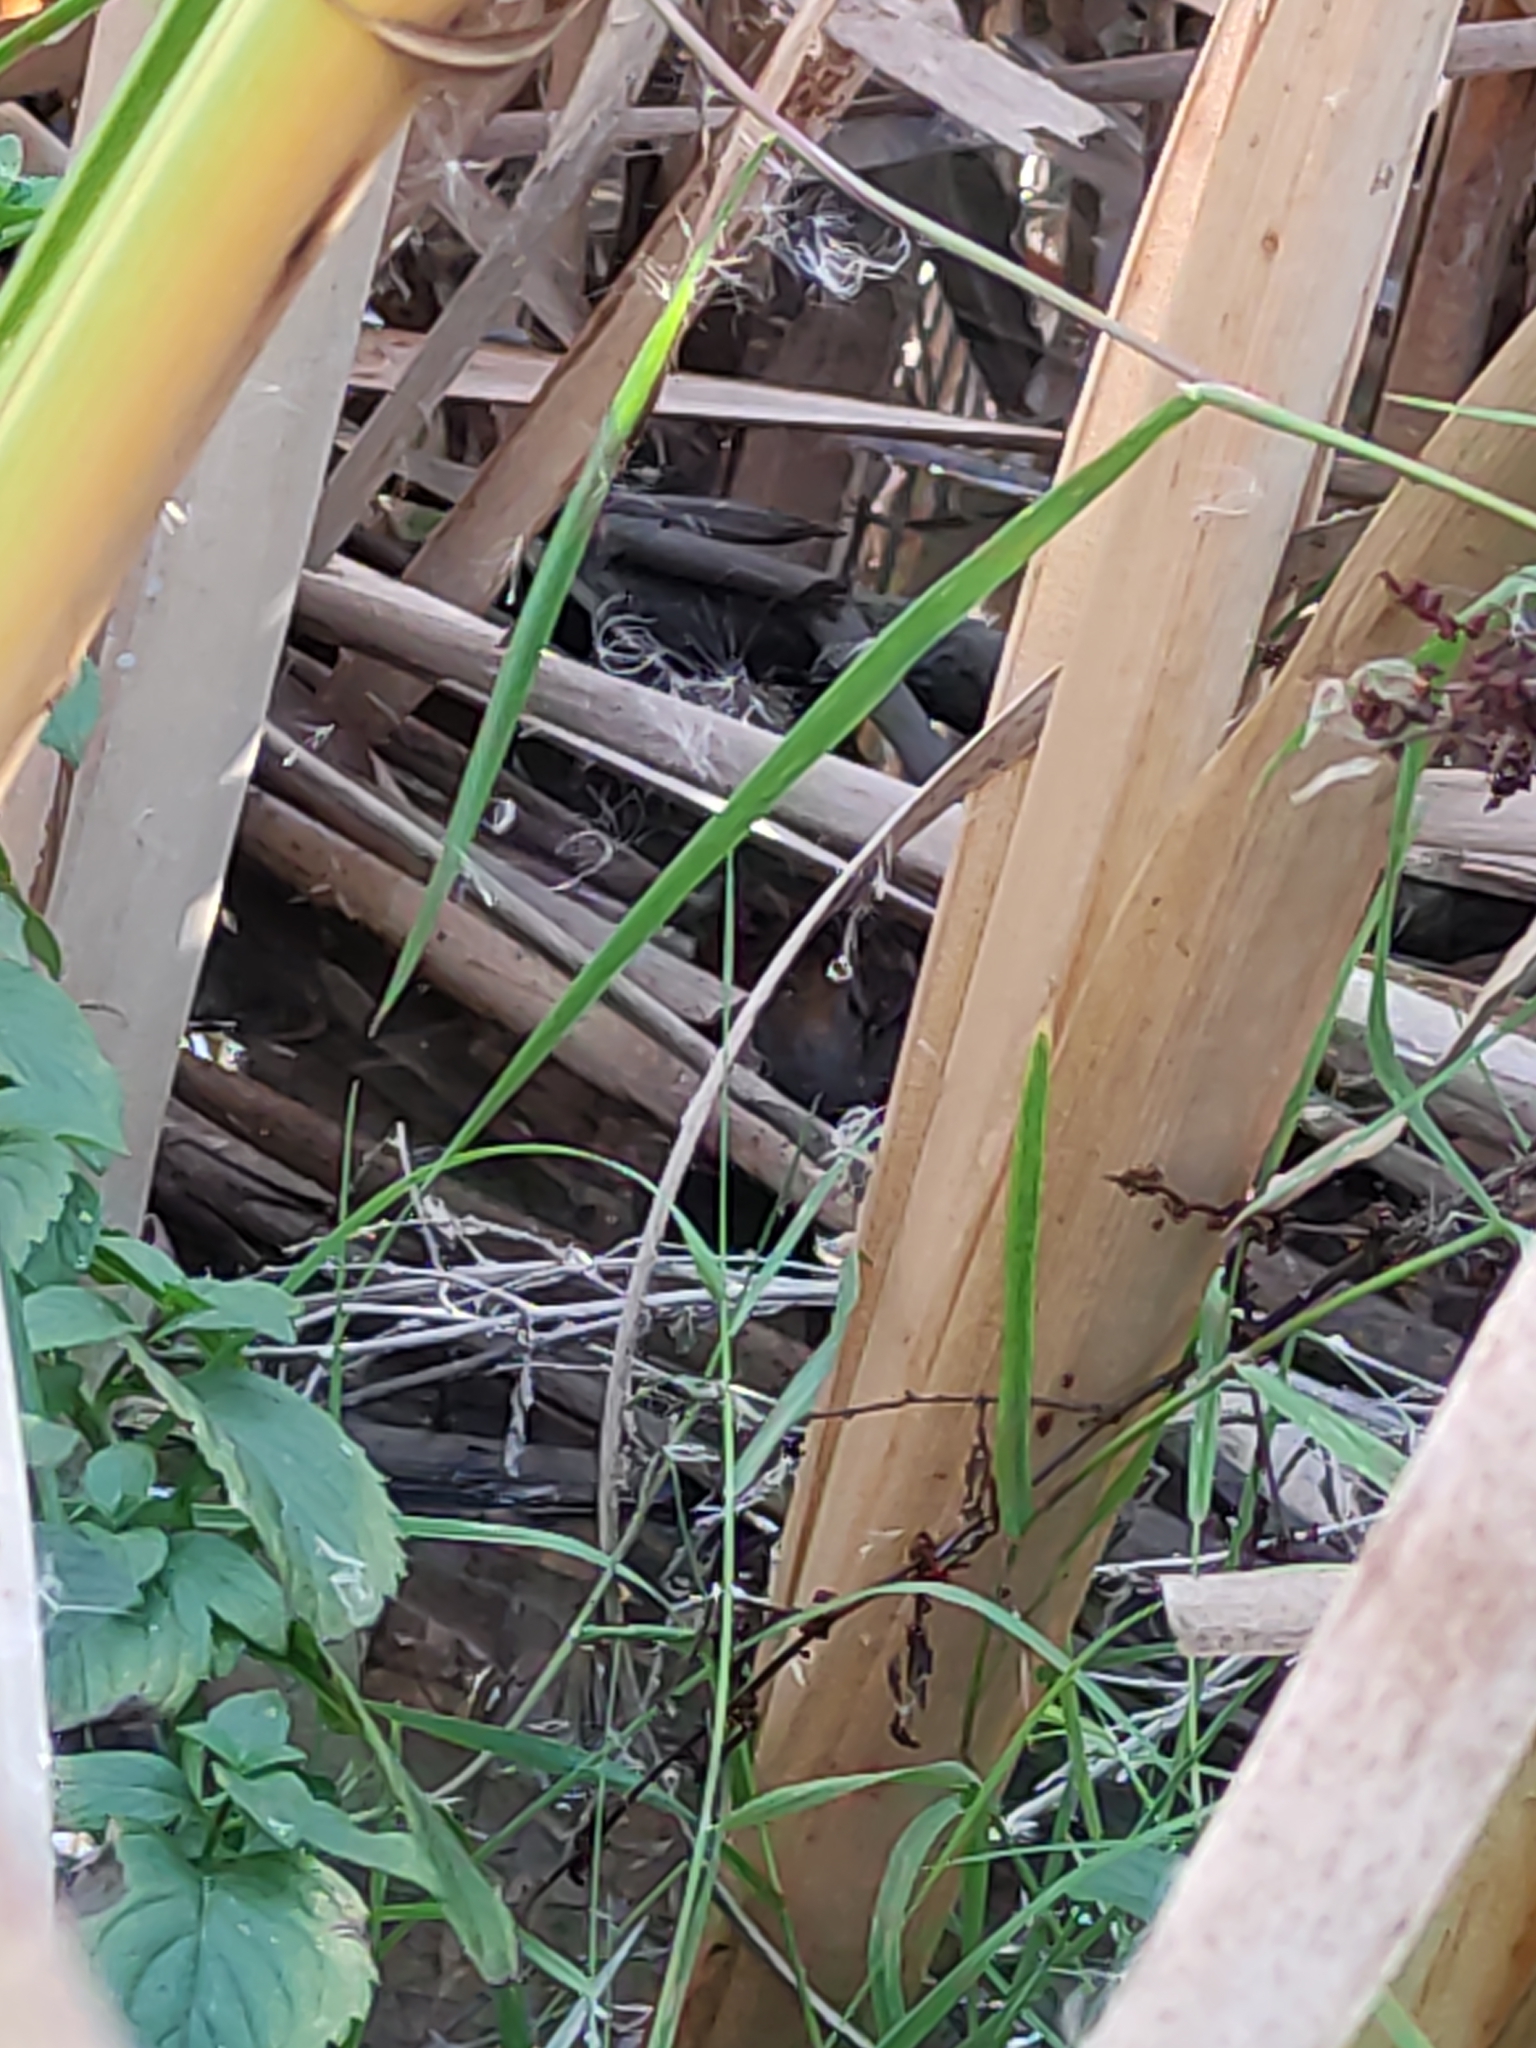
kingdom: Animalia
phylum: Chordata
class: Aves
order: Gruiformes
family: Rallidae
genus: Porzana
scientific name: Porzana pusilla
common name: Baillon's crake
